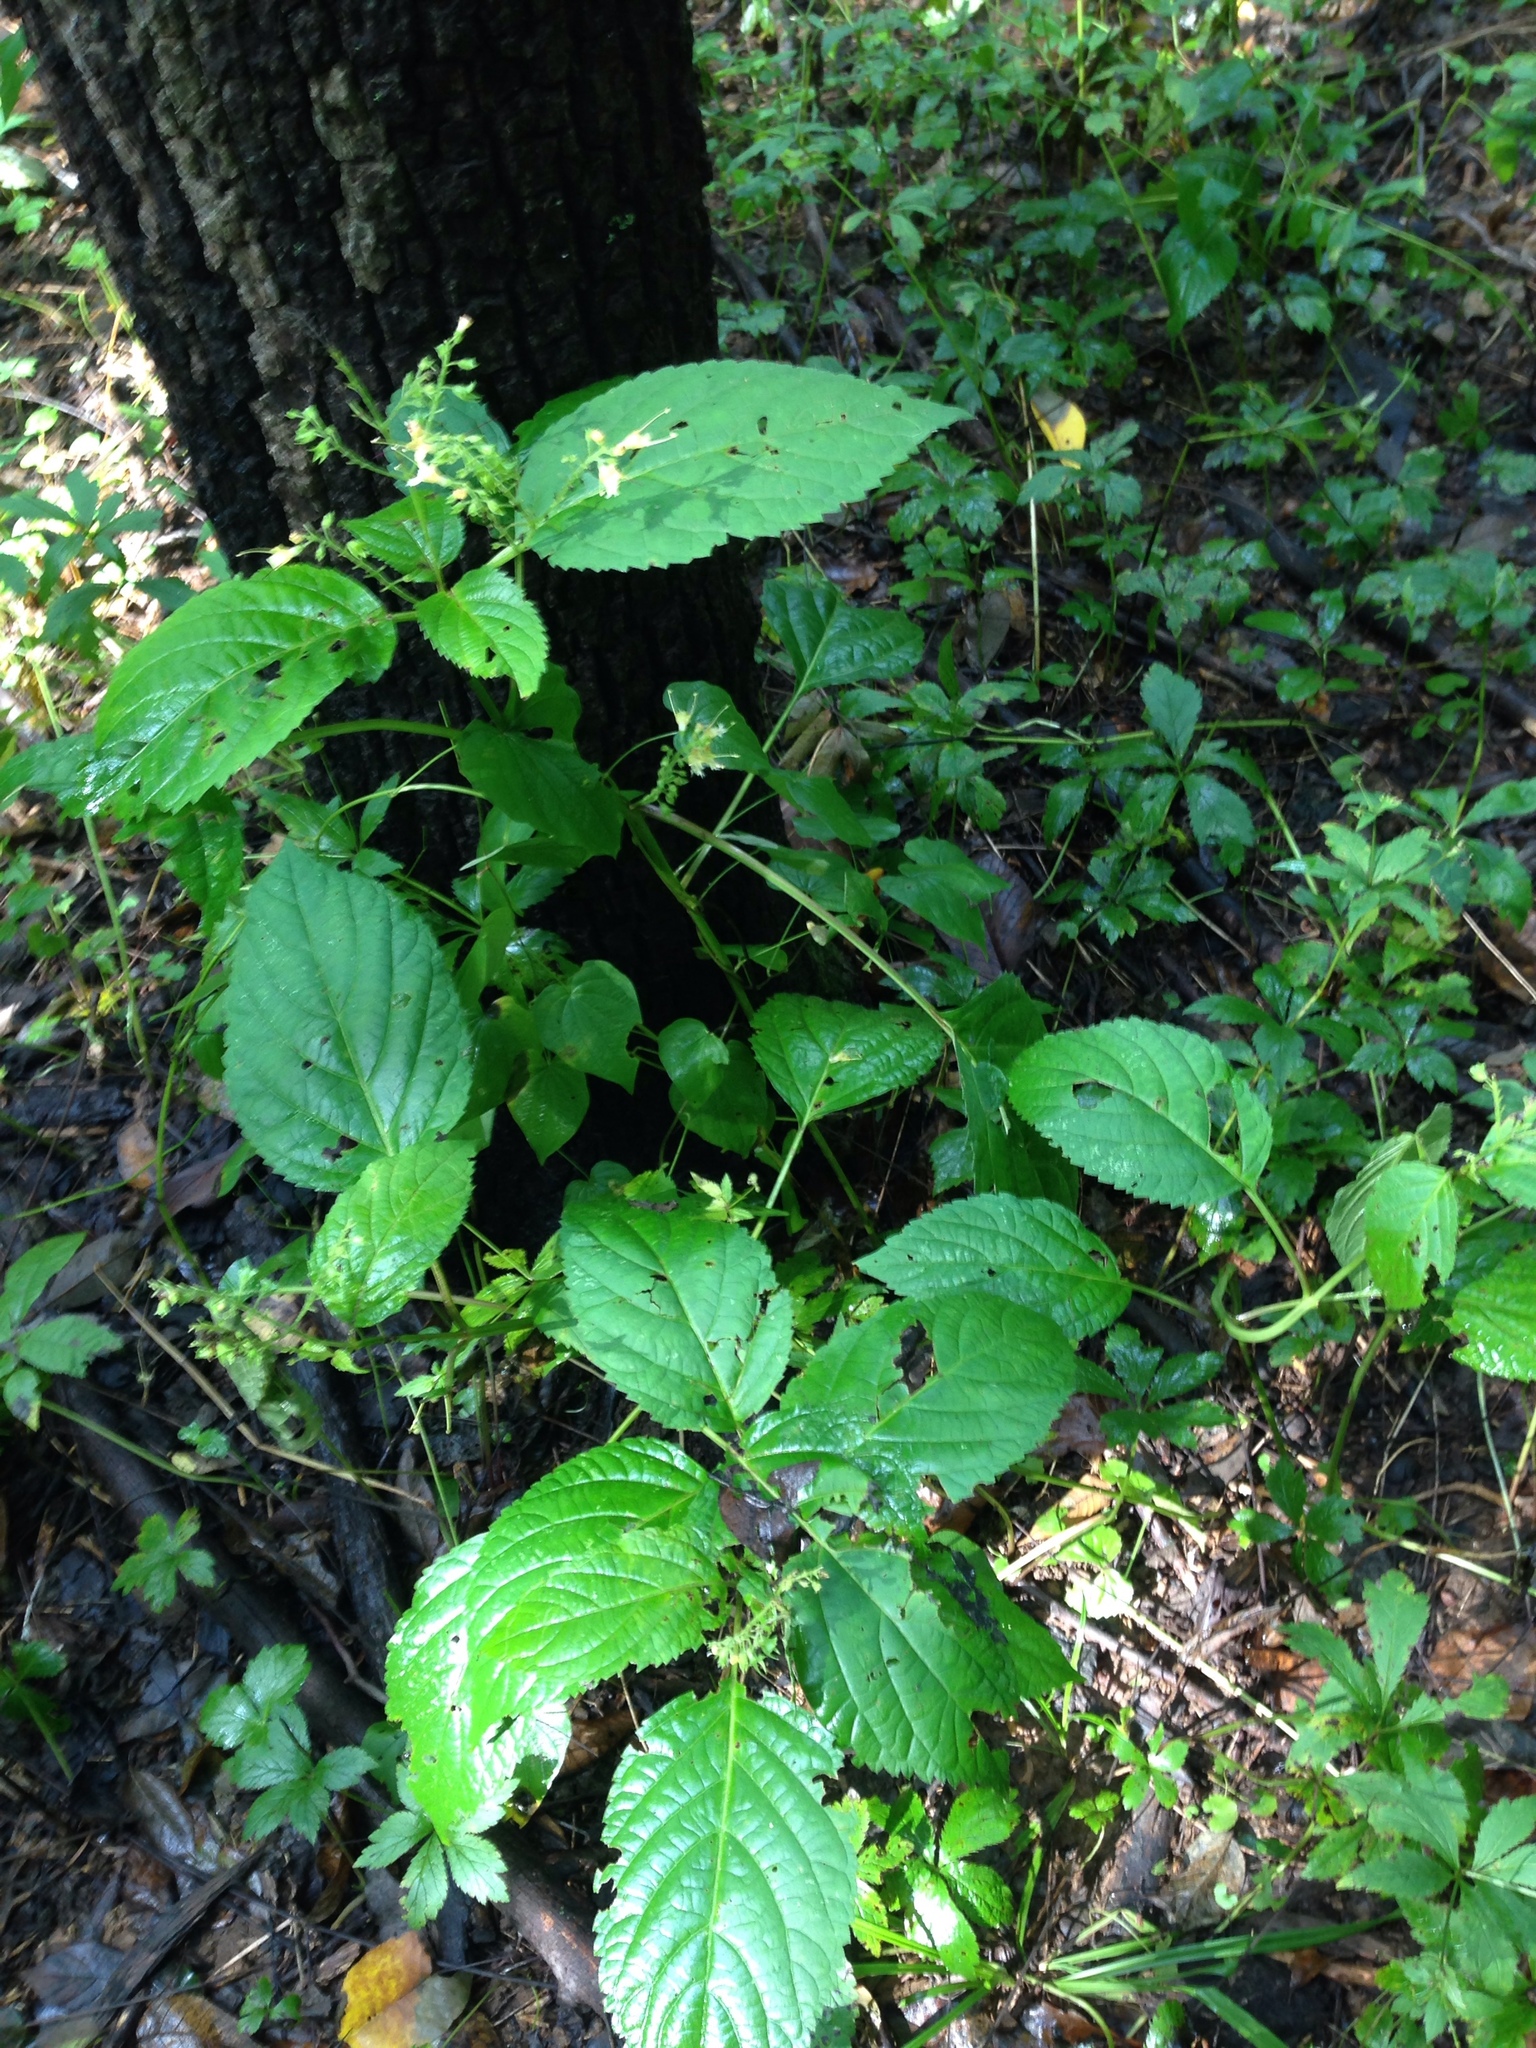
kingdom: Plantae
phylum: Tracheophyta
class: Magnoliopsida
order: Lamiales
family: Lamiaceae
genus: Collinsonia
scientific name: Collinsonia canadensis
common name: Northern horsebalm
